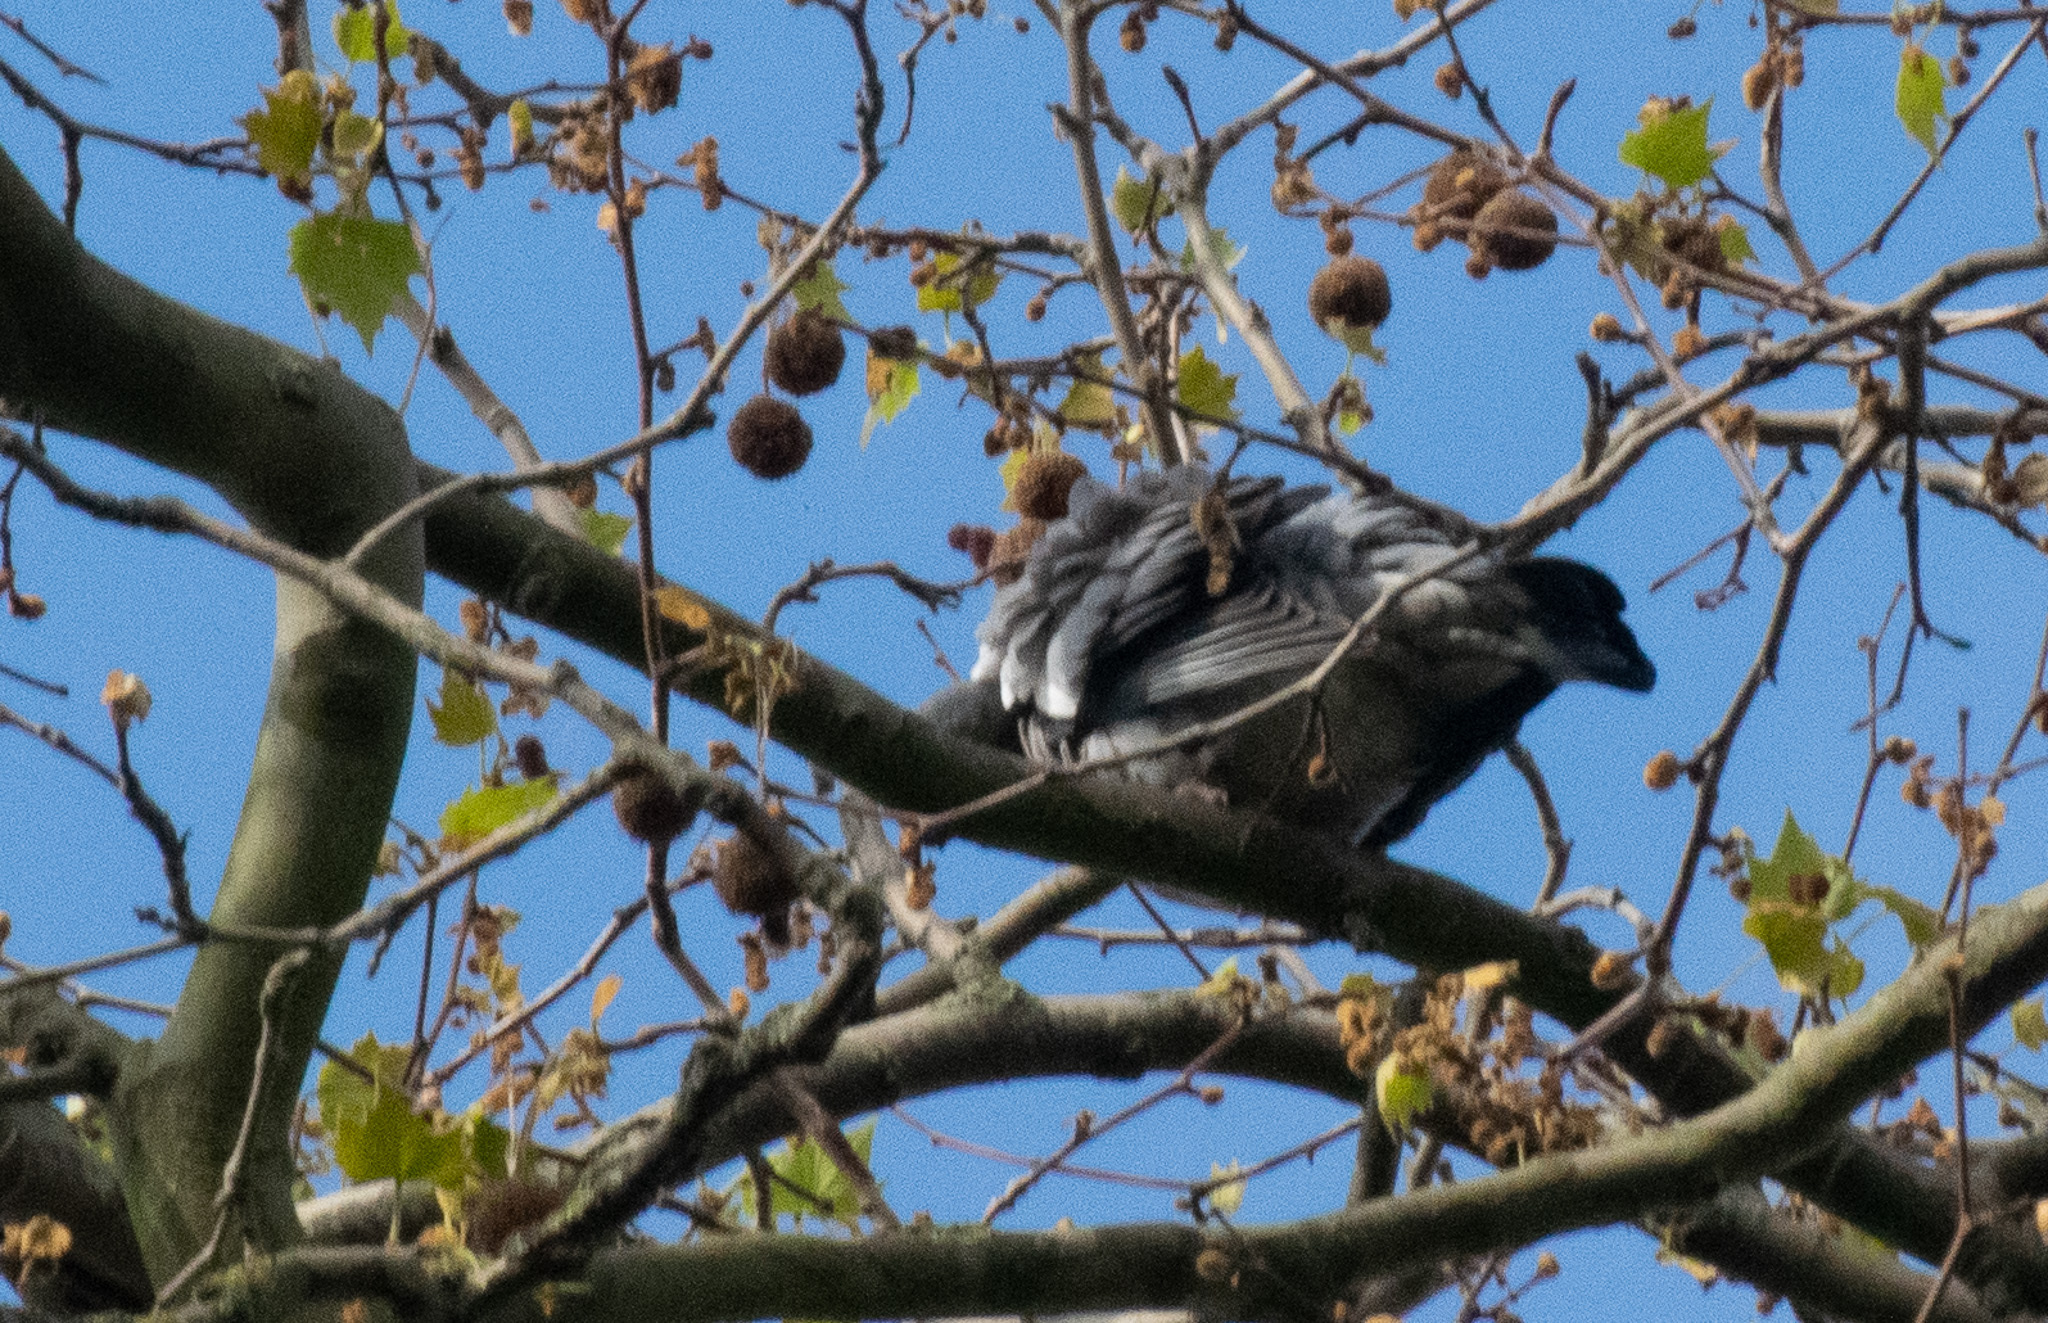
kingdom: Animalia
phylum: Chordata
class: Aves
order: Columbiformes
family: Columbidae
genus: Columba
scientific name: Columba palumbus
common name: Common wood pigeon
